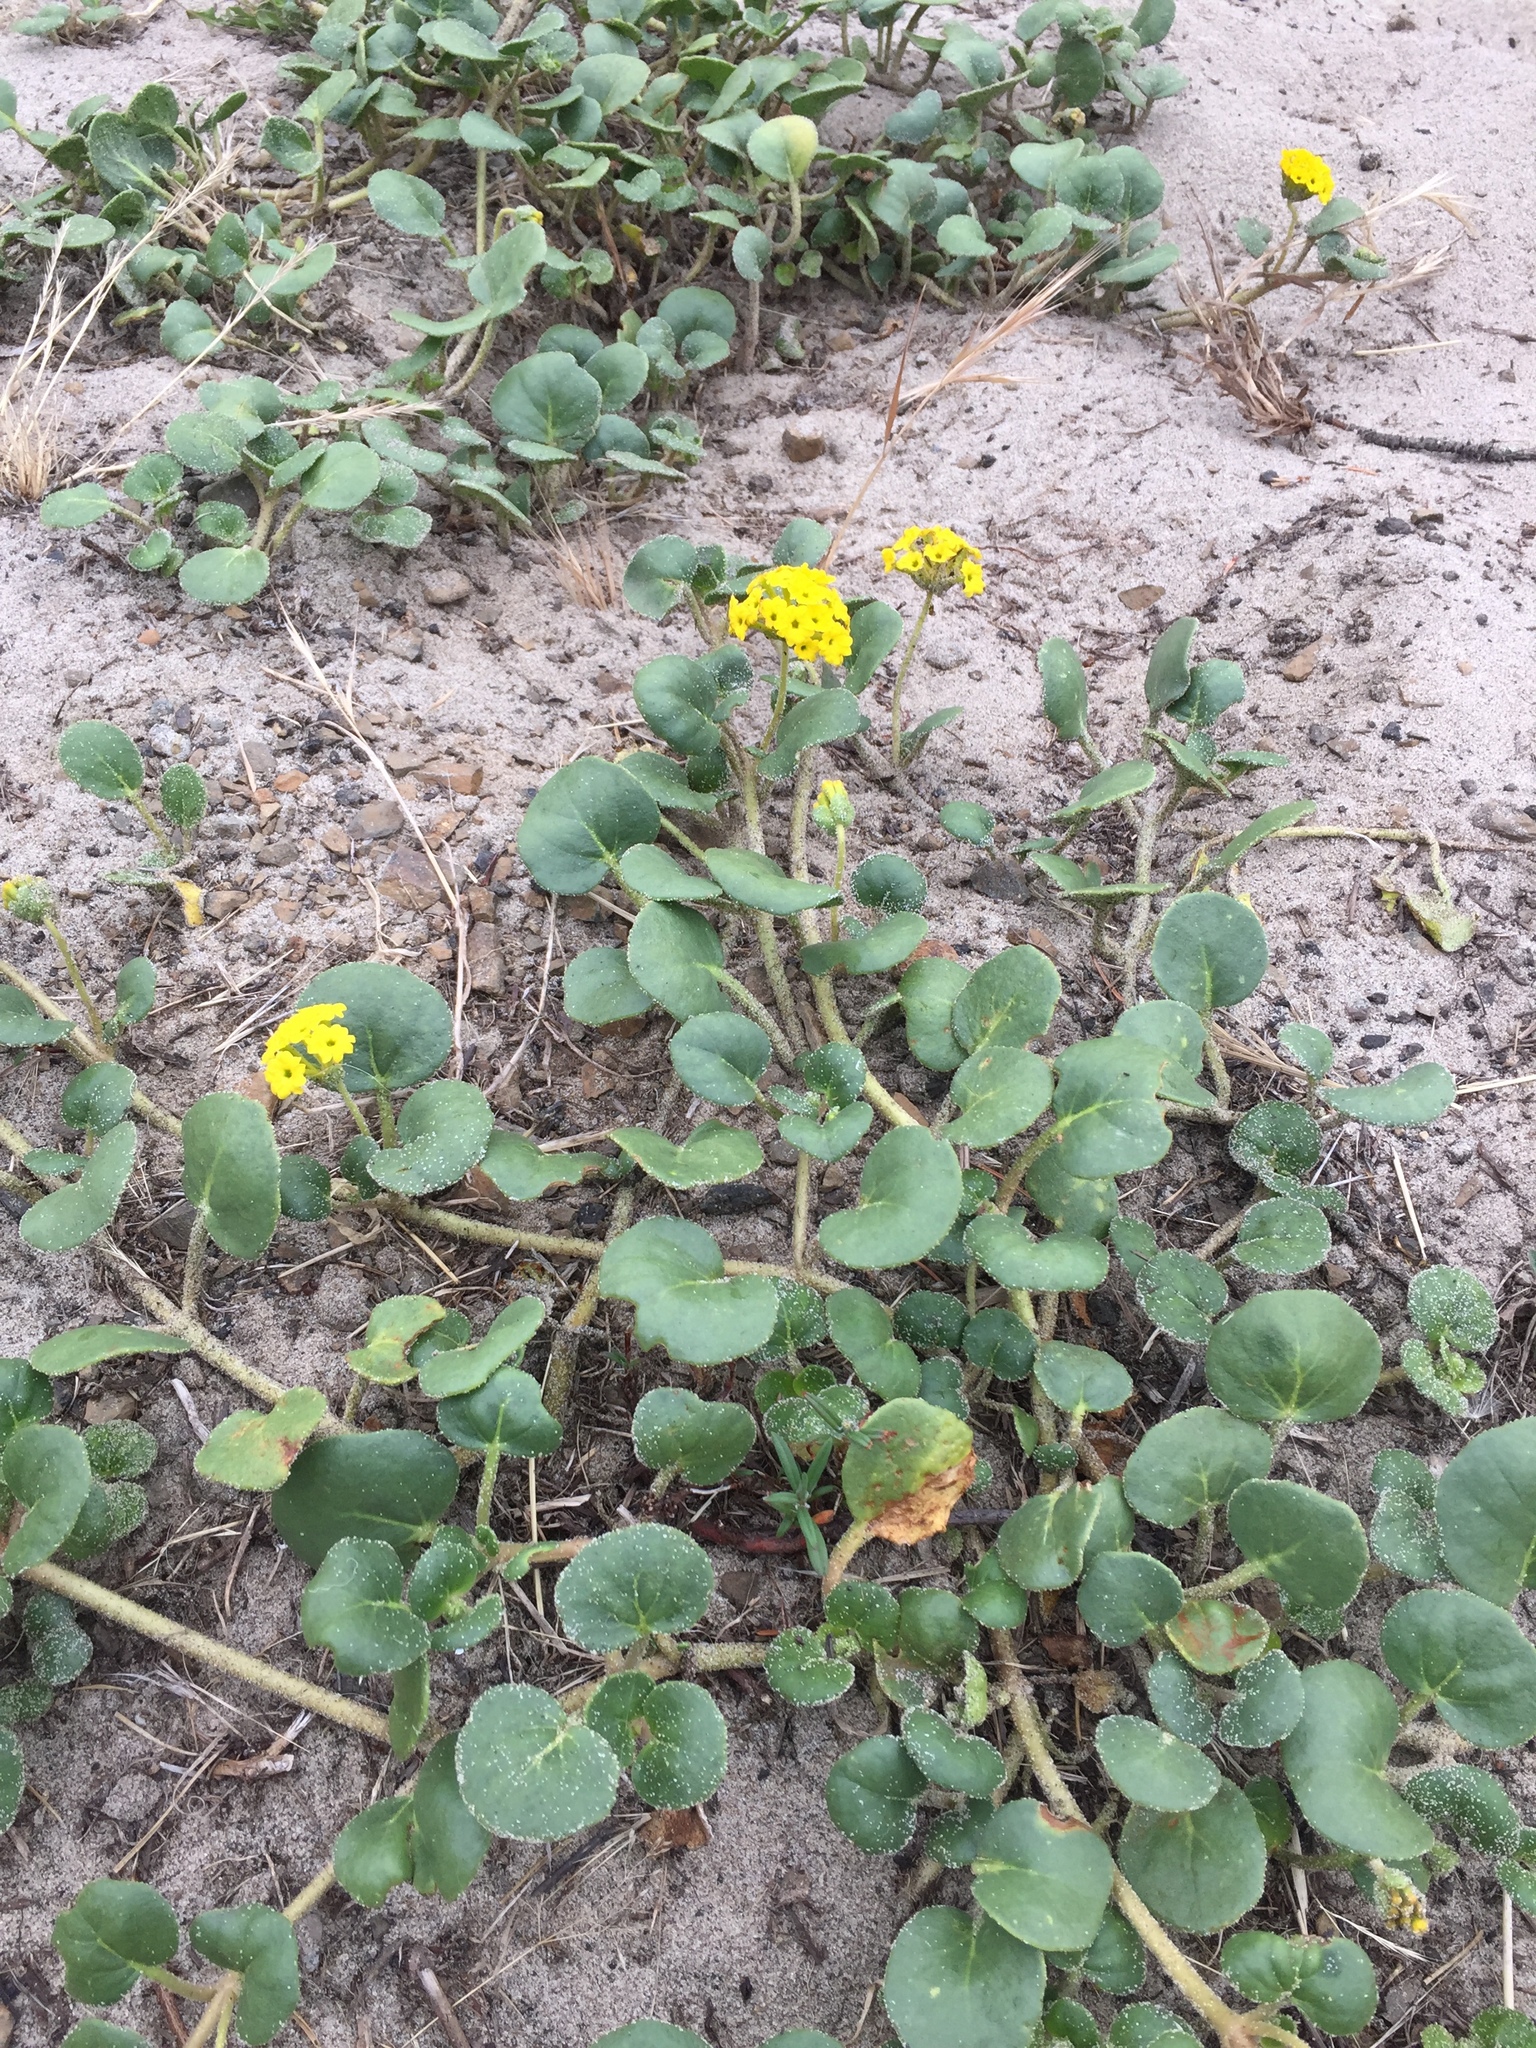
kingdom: Plantae
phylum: Tracheophyta
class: Magnoliopsida
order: Caryophyllales
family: Nyctaginaceae
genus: Abronia
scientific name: Abronia latifolia
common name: Yellow sand-verbena
